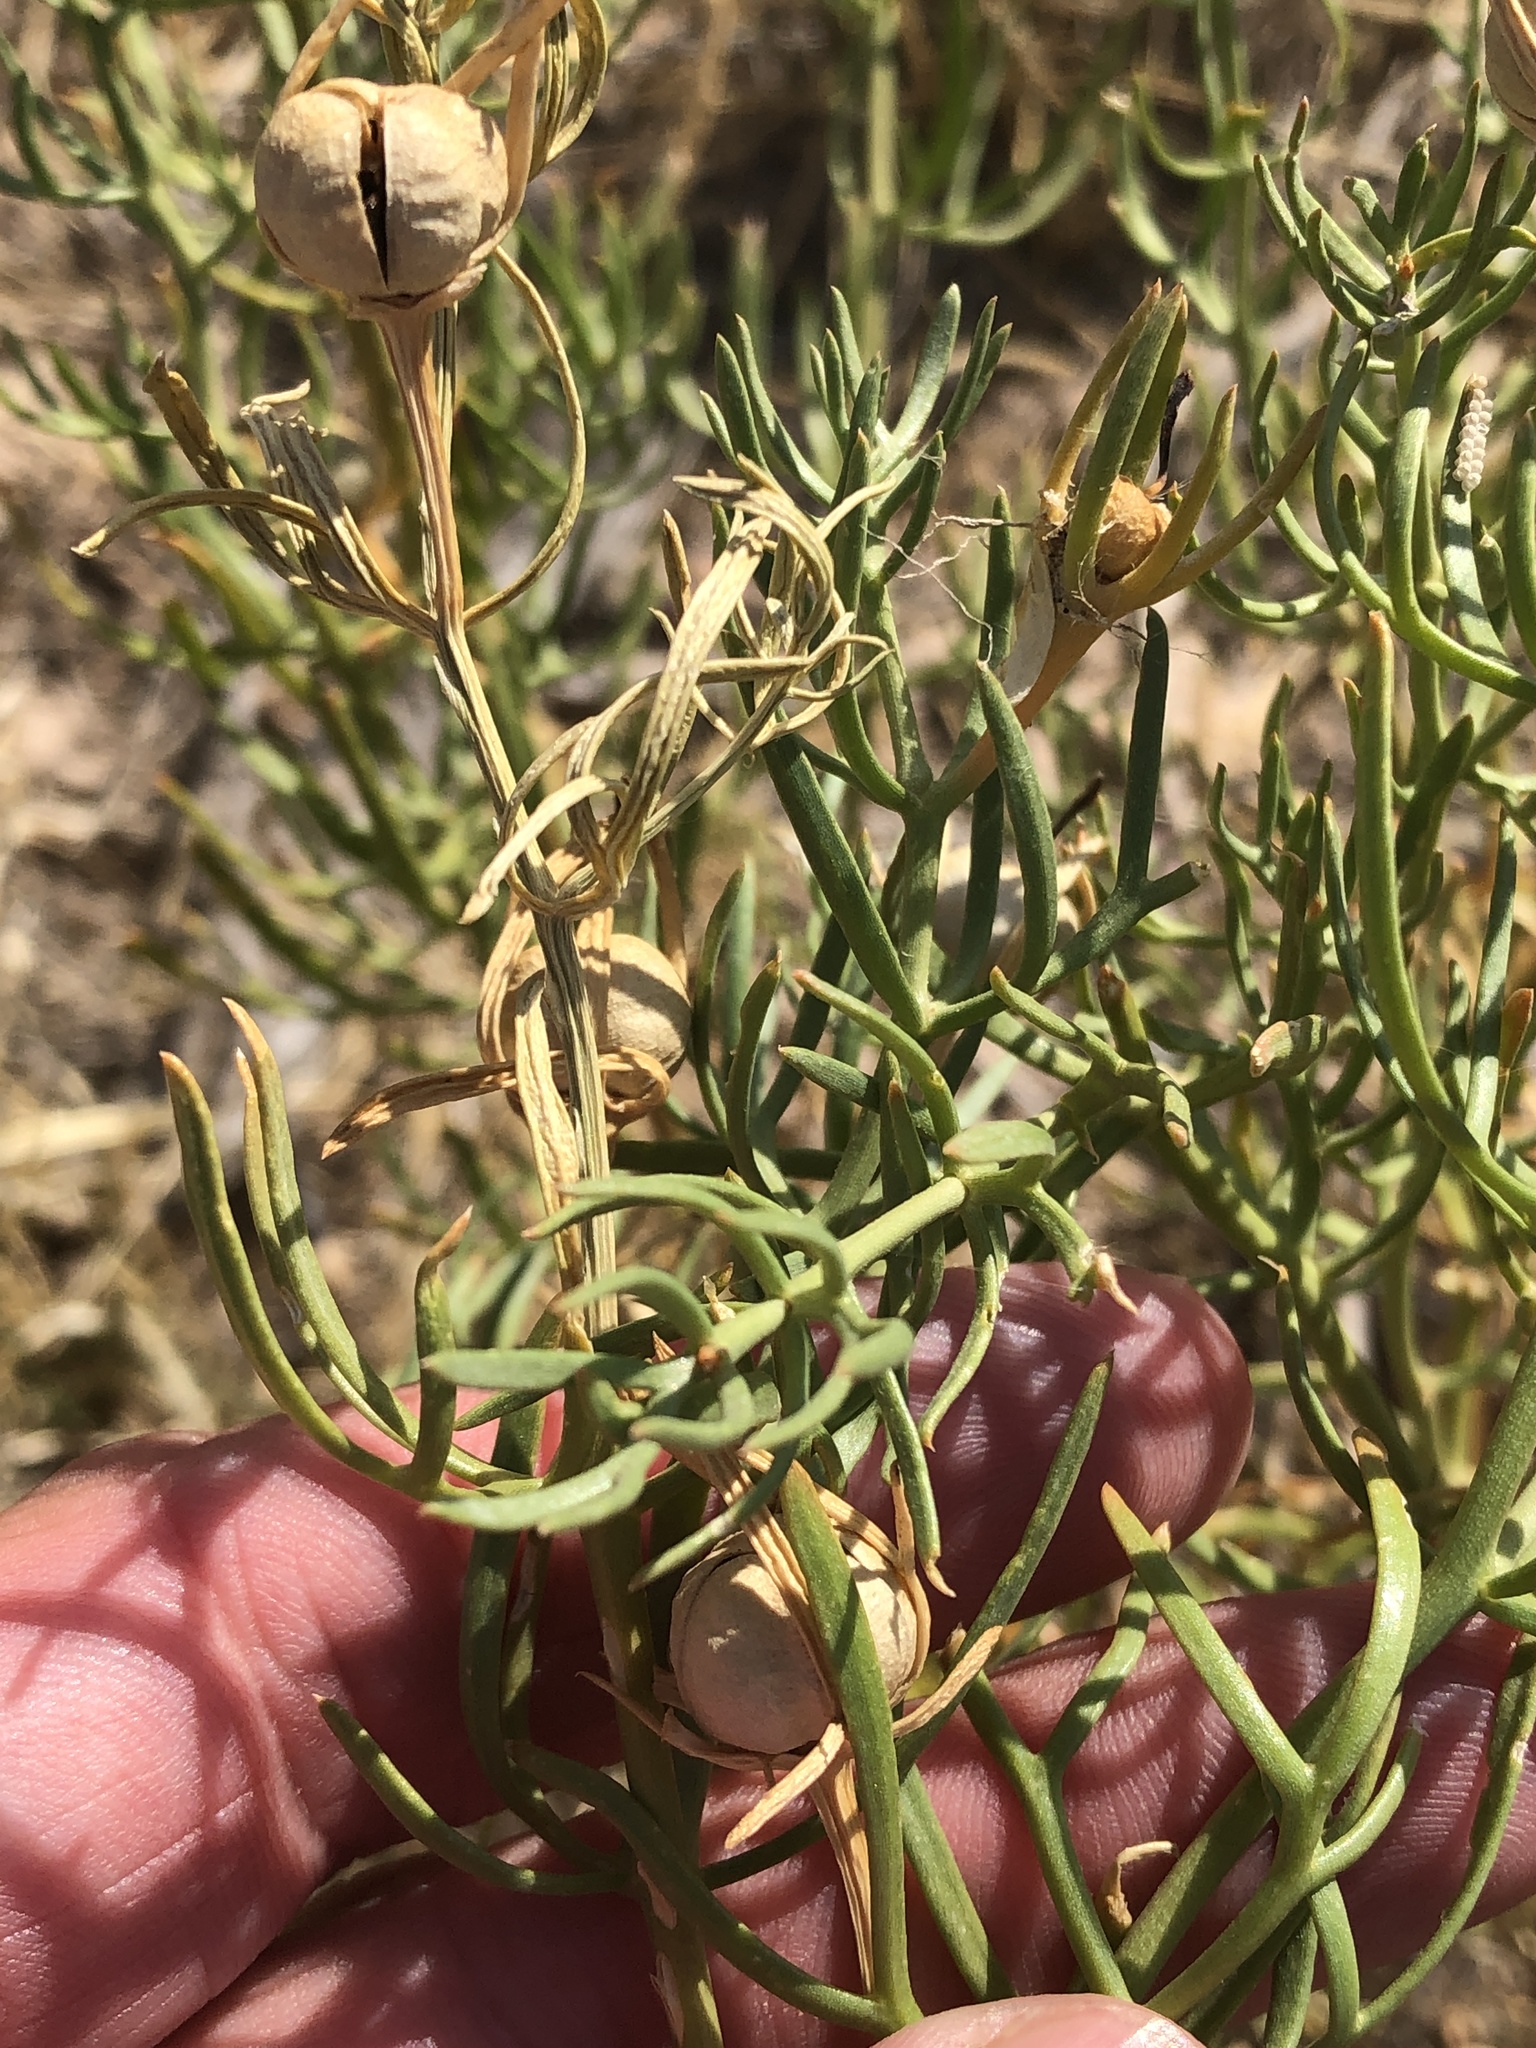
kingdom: Plantae
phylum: Tracheophyta
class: Magnoliopsida
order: Sapindales
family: Tetradiclidaceae
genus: Peganum
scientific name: Peganum harmala
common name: Harmal peganum
